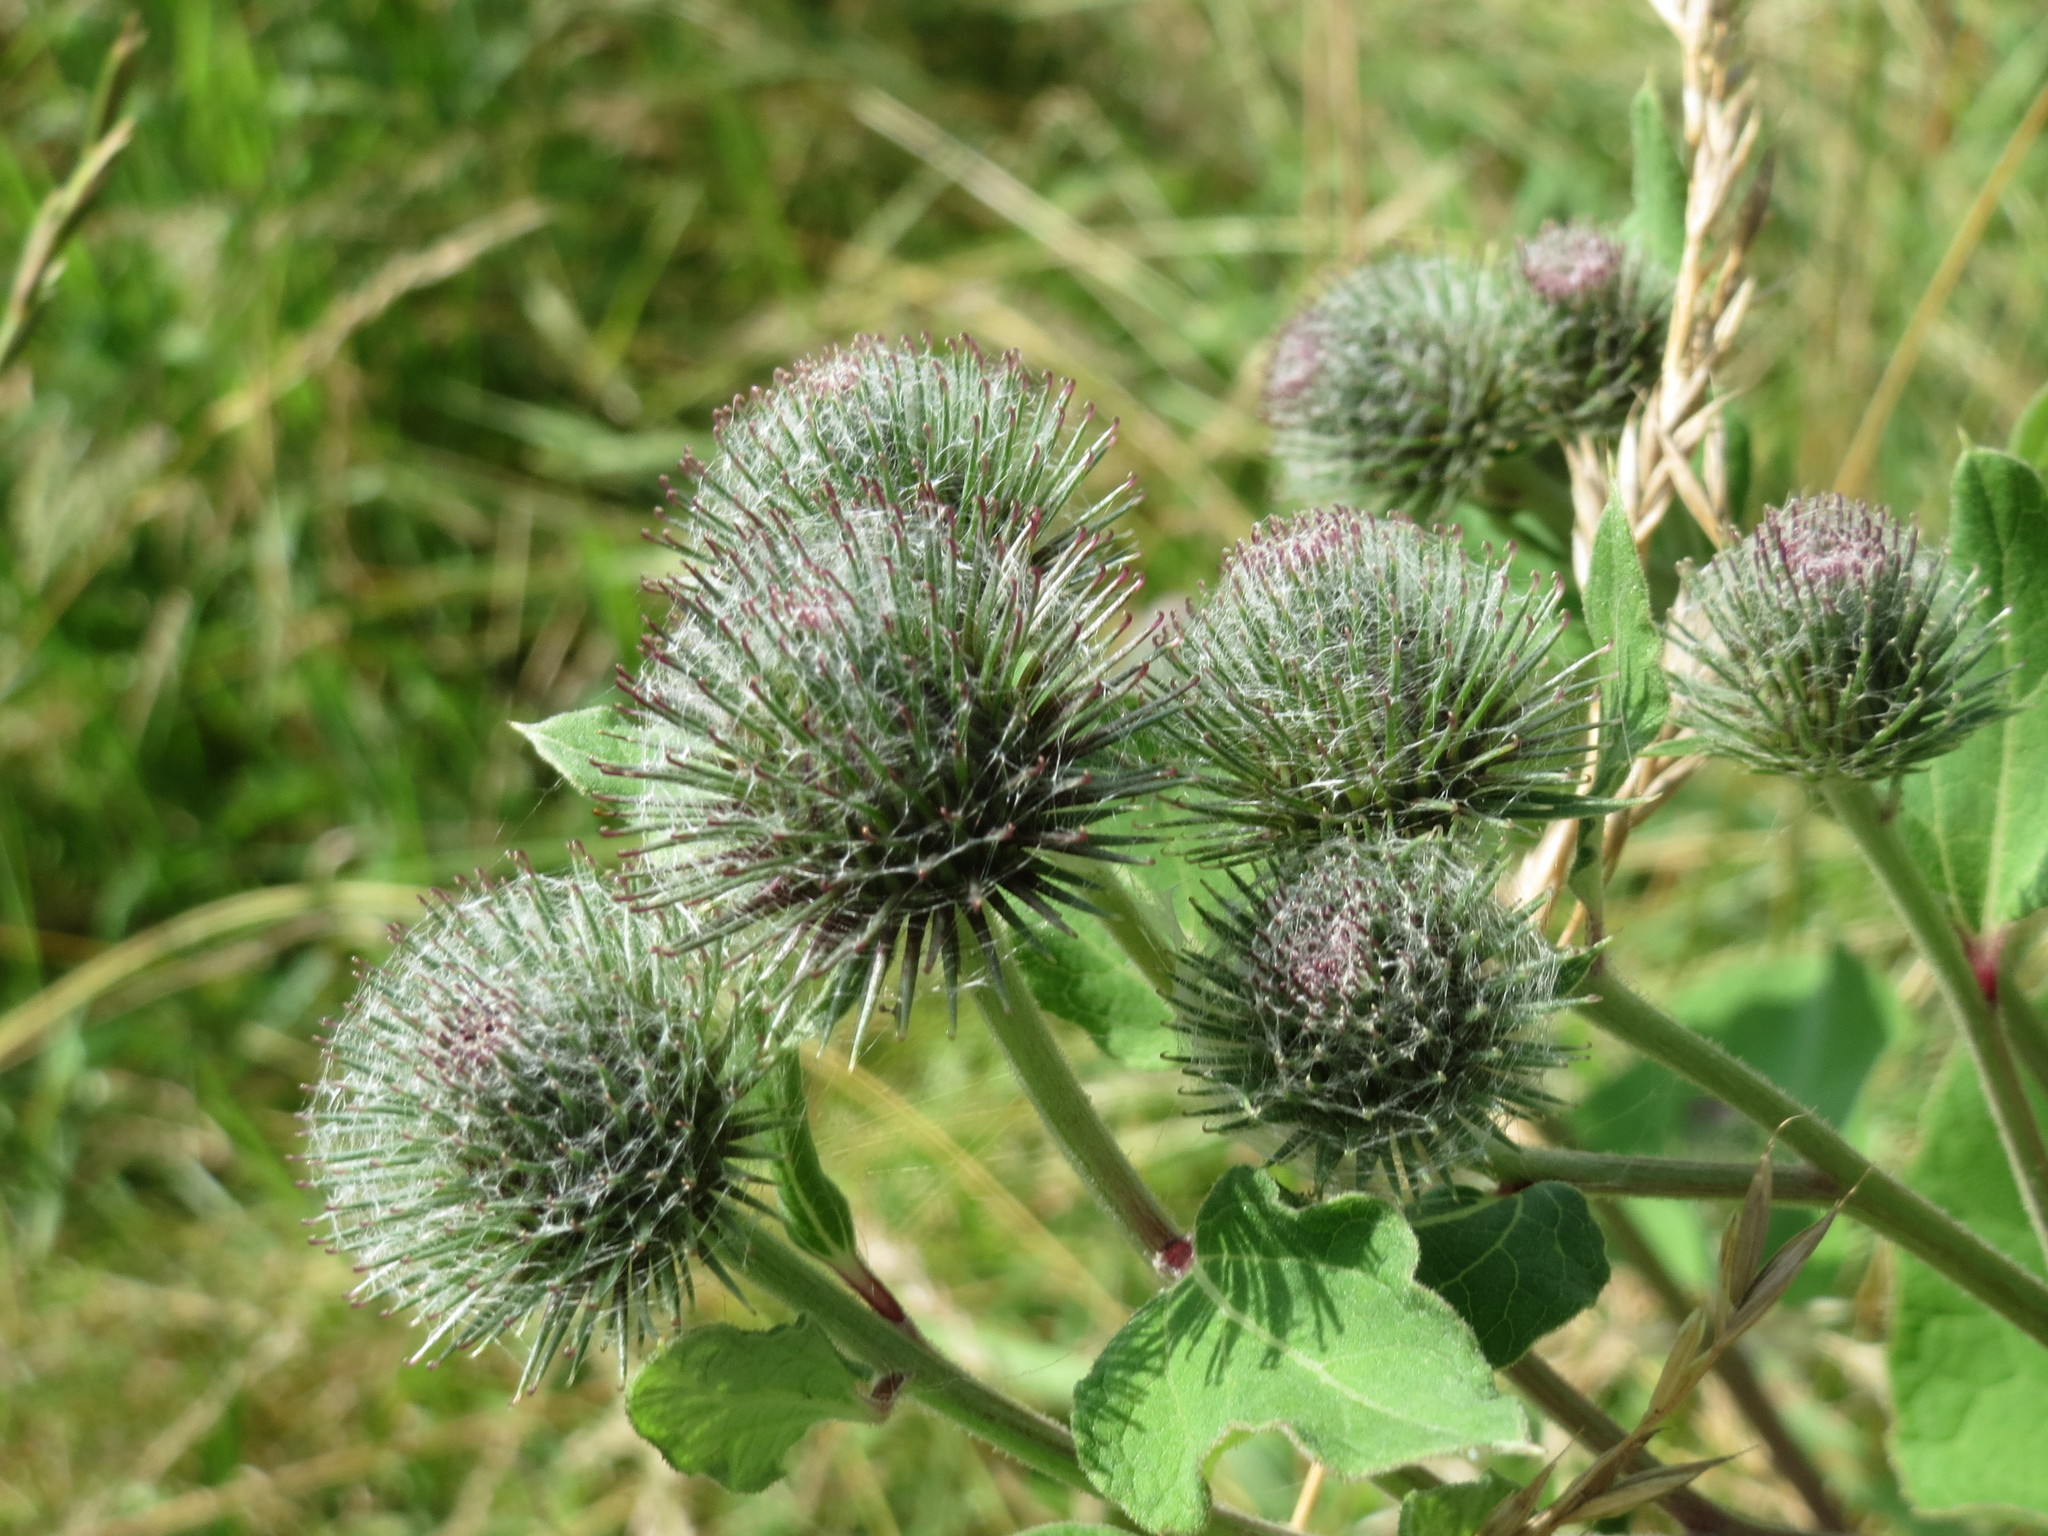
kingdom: Plantae
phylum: Tracheophyta
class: Magnoliopsida
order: Asterales
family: Asteraceae
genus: Arctium
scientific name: Arctium tomentosum
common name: Woolly burdock
